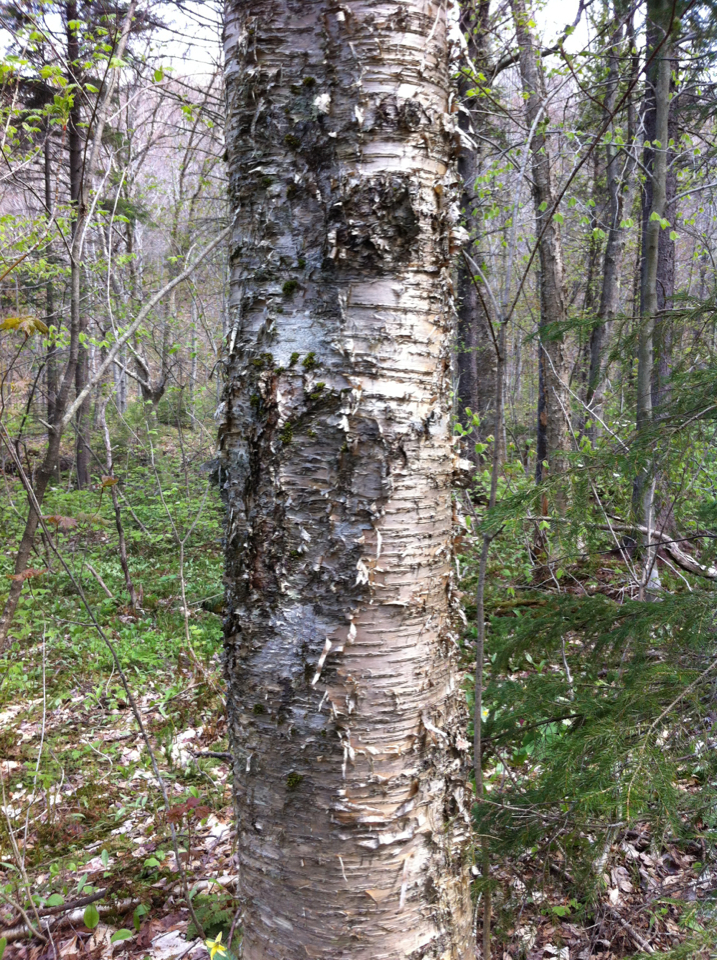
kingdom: Plantae
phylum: Tracheophyta
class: Magnoliopsida
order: Fagales
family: Betulaceae
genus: Betula
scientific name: Betula alleghaniensis
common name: Yellow birch
